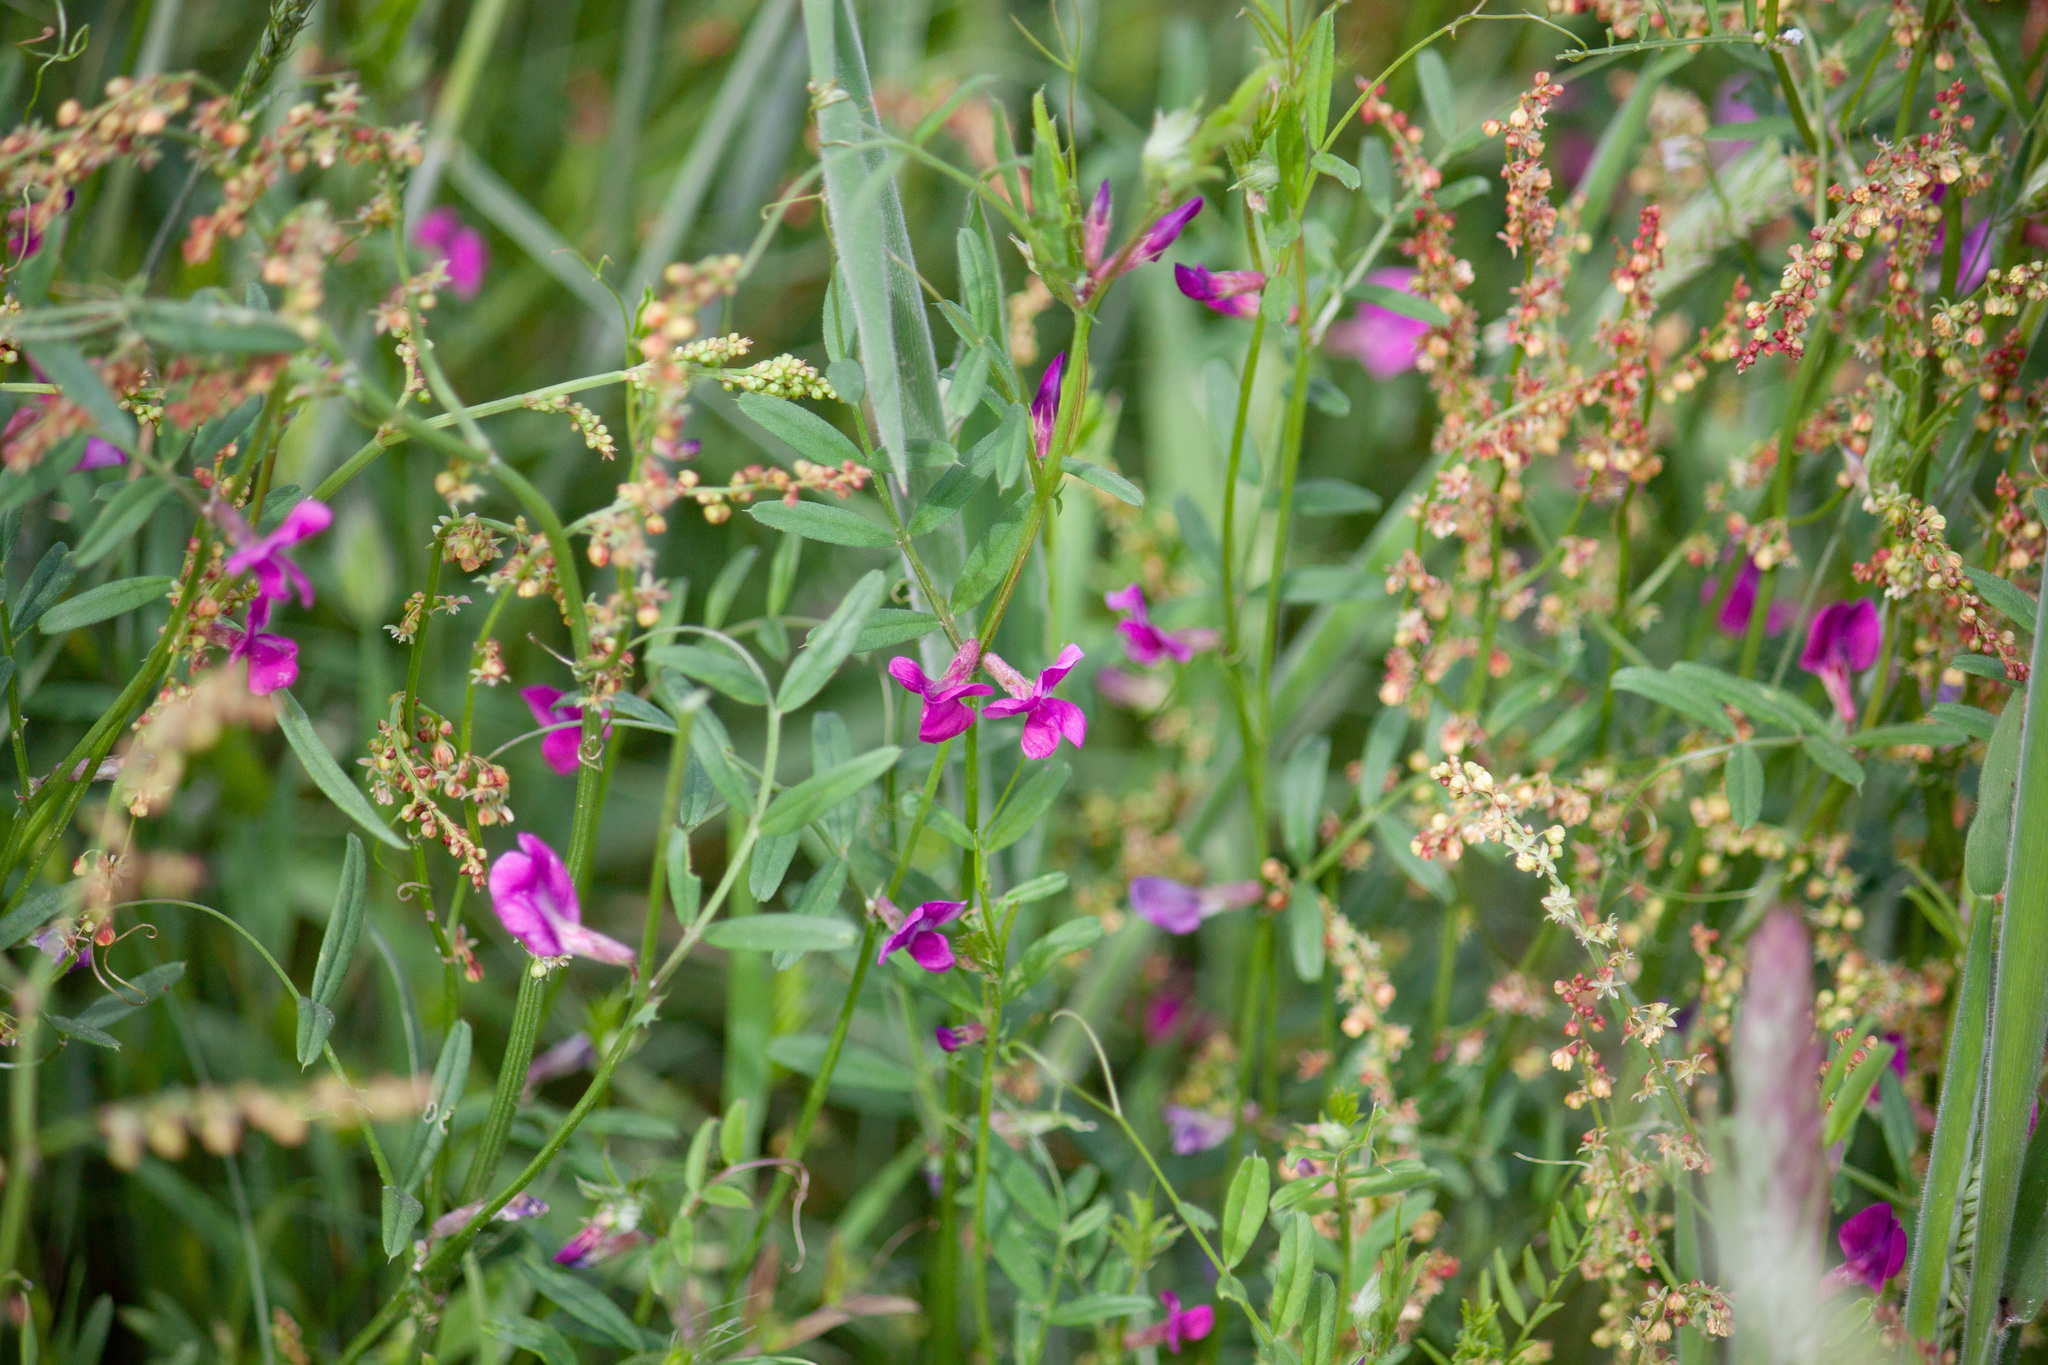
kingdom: Plantae
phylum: Tracheophyta
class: Magnoliopsida
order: Fabales
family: Fabaceae
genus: Vicia
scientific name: Vicia sativa
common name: Garden vetch
